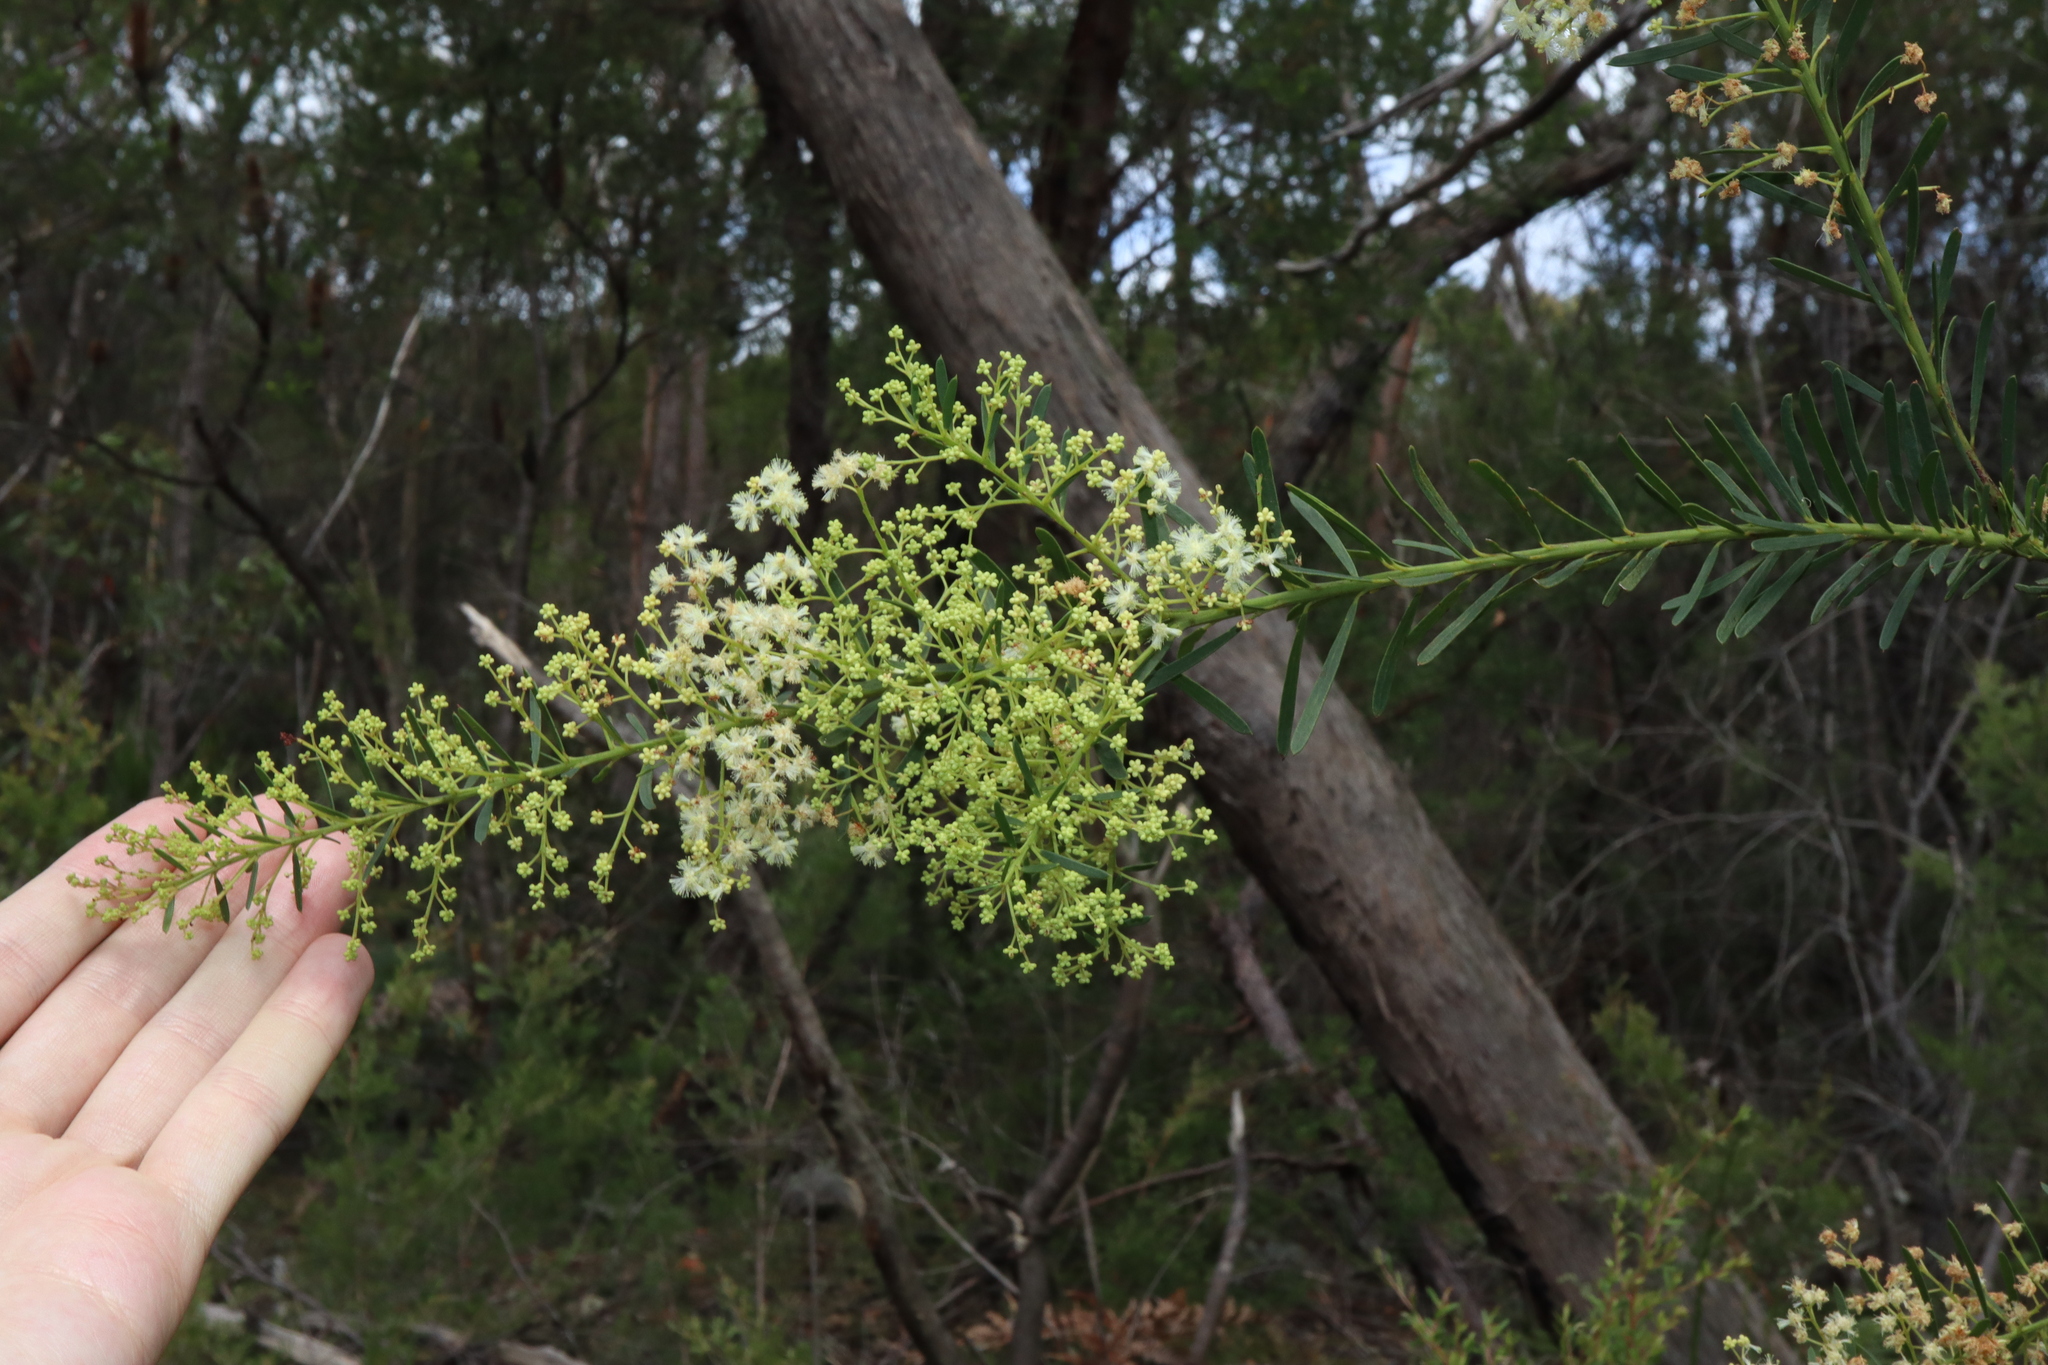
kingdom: Plantae
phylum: Tracheophyta
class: Magnoliopsida
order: Fabales
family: Fabaceae
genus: Acacia
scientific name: Acacia linifolia
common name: White wattle
